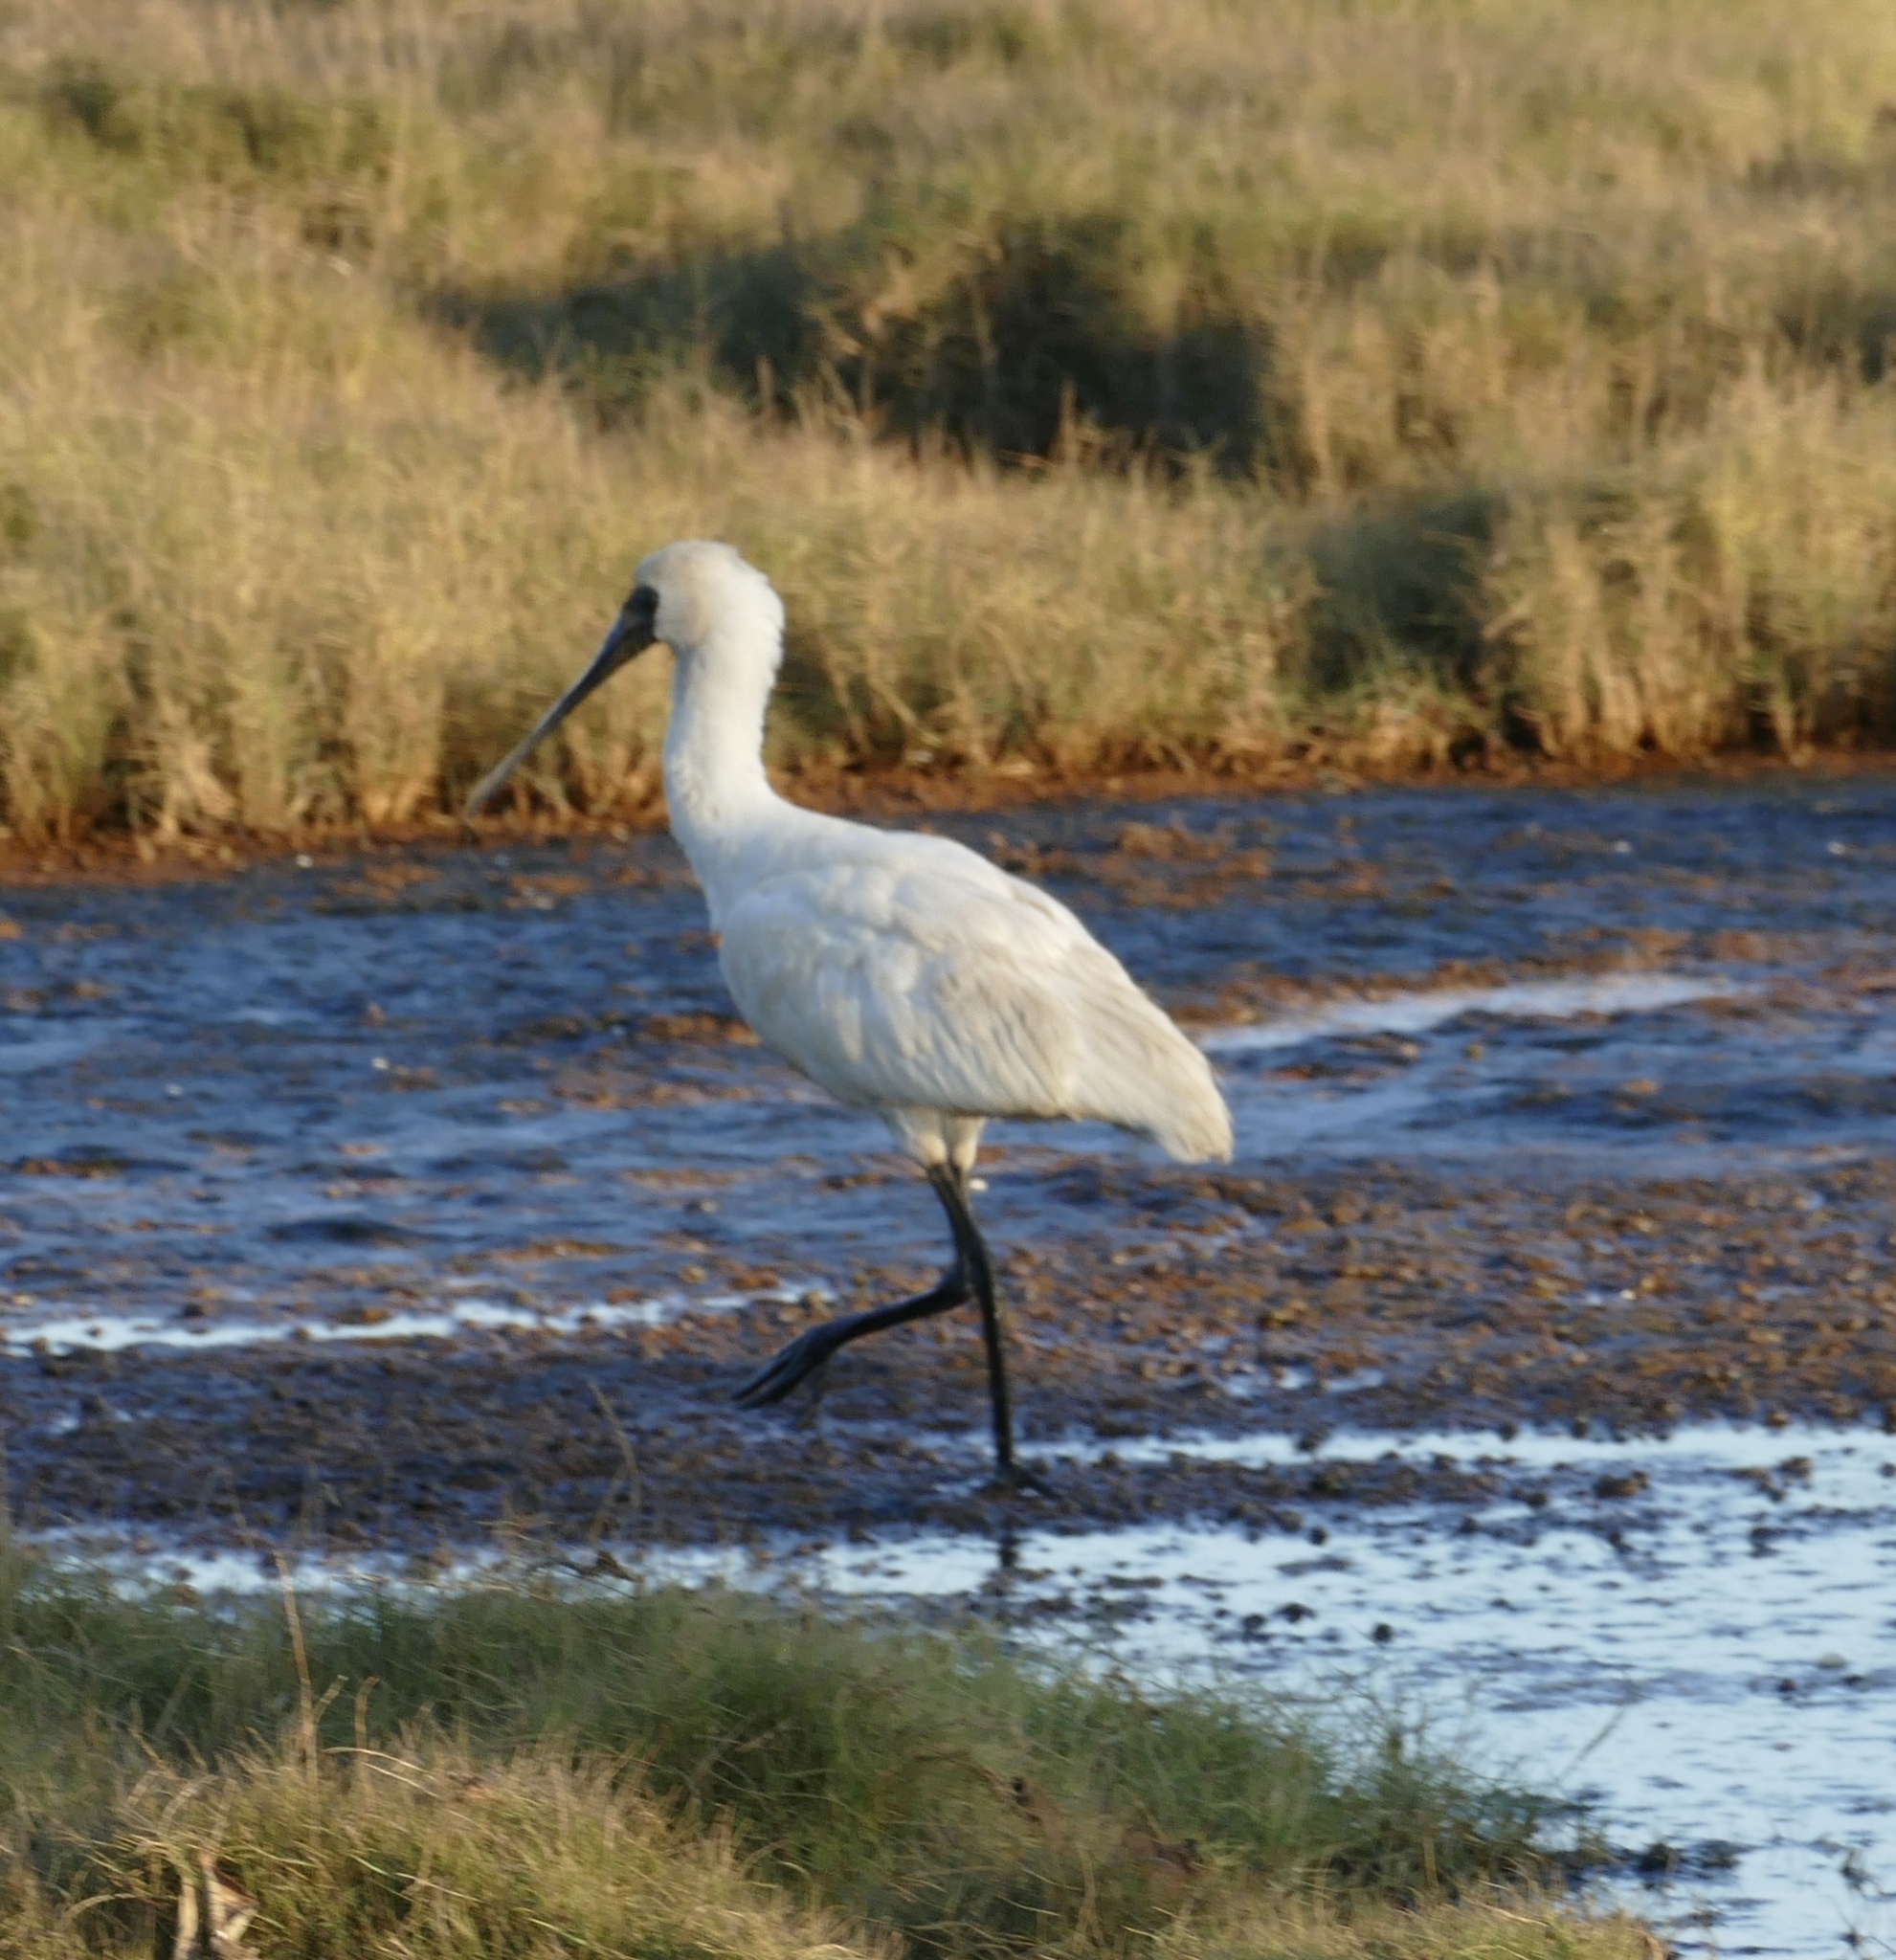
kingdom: Animalia
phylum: Chordata
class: Aves
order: Pelecaniformes
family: Threskiornithidae
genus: Platalea
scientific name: Platalea regia
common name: Royal spoonbill
